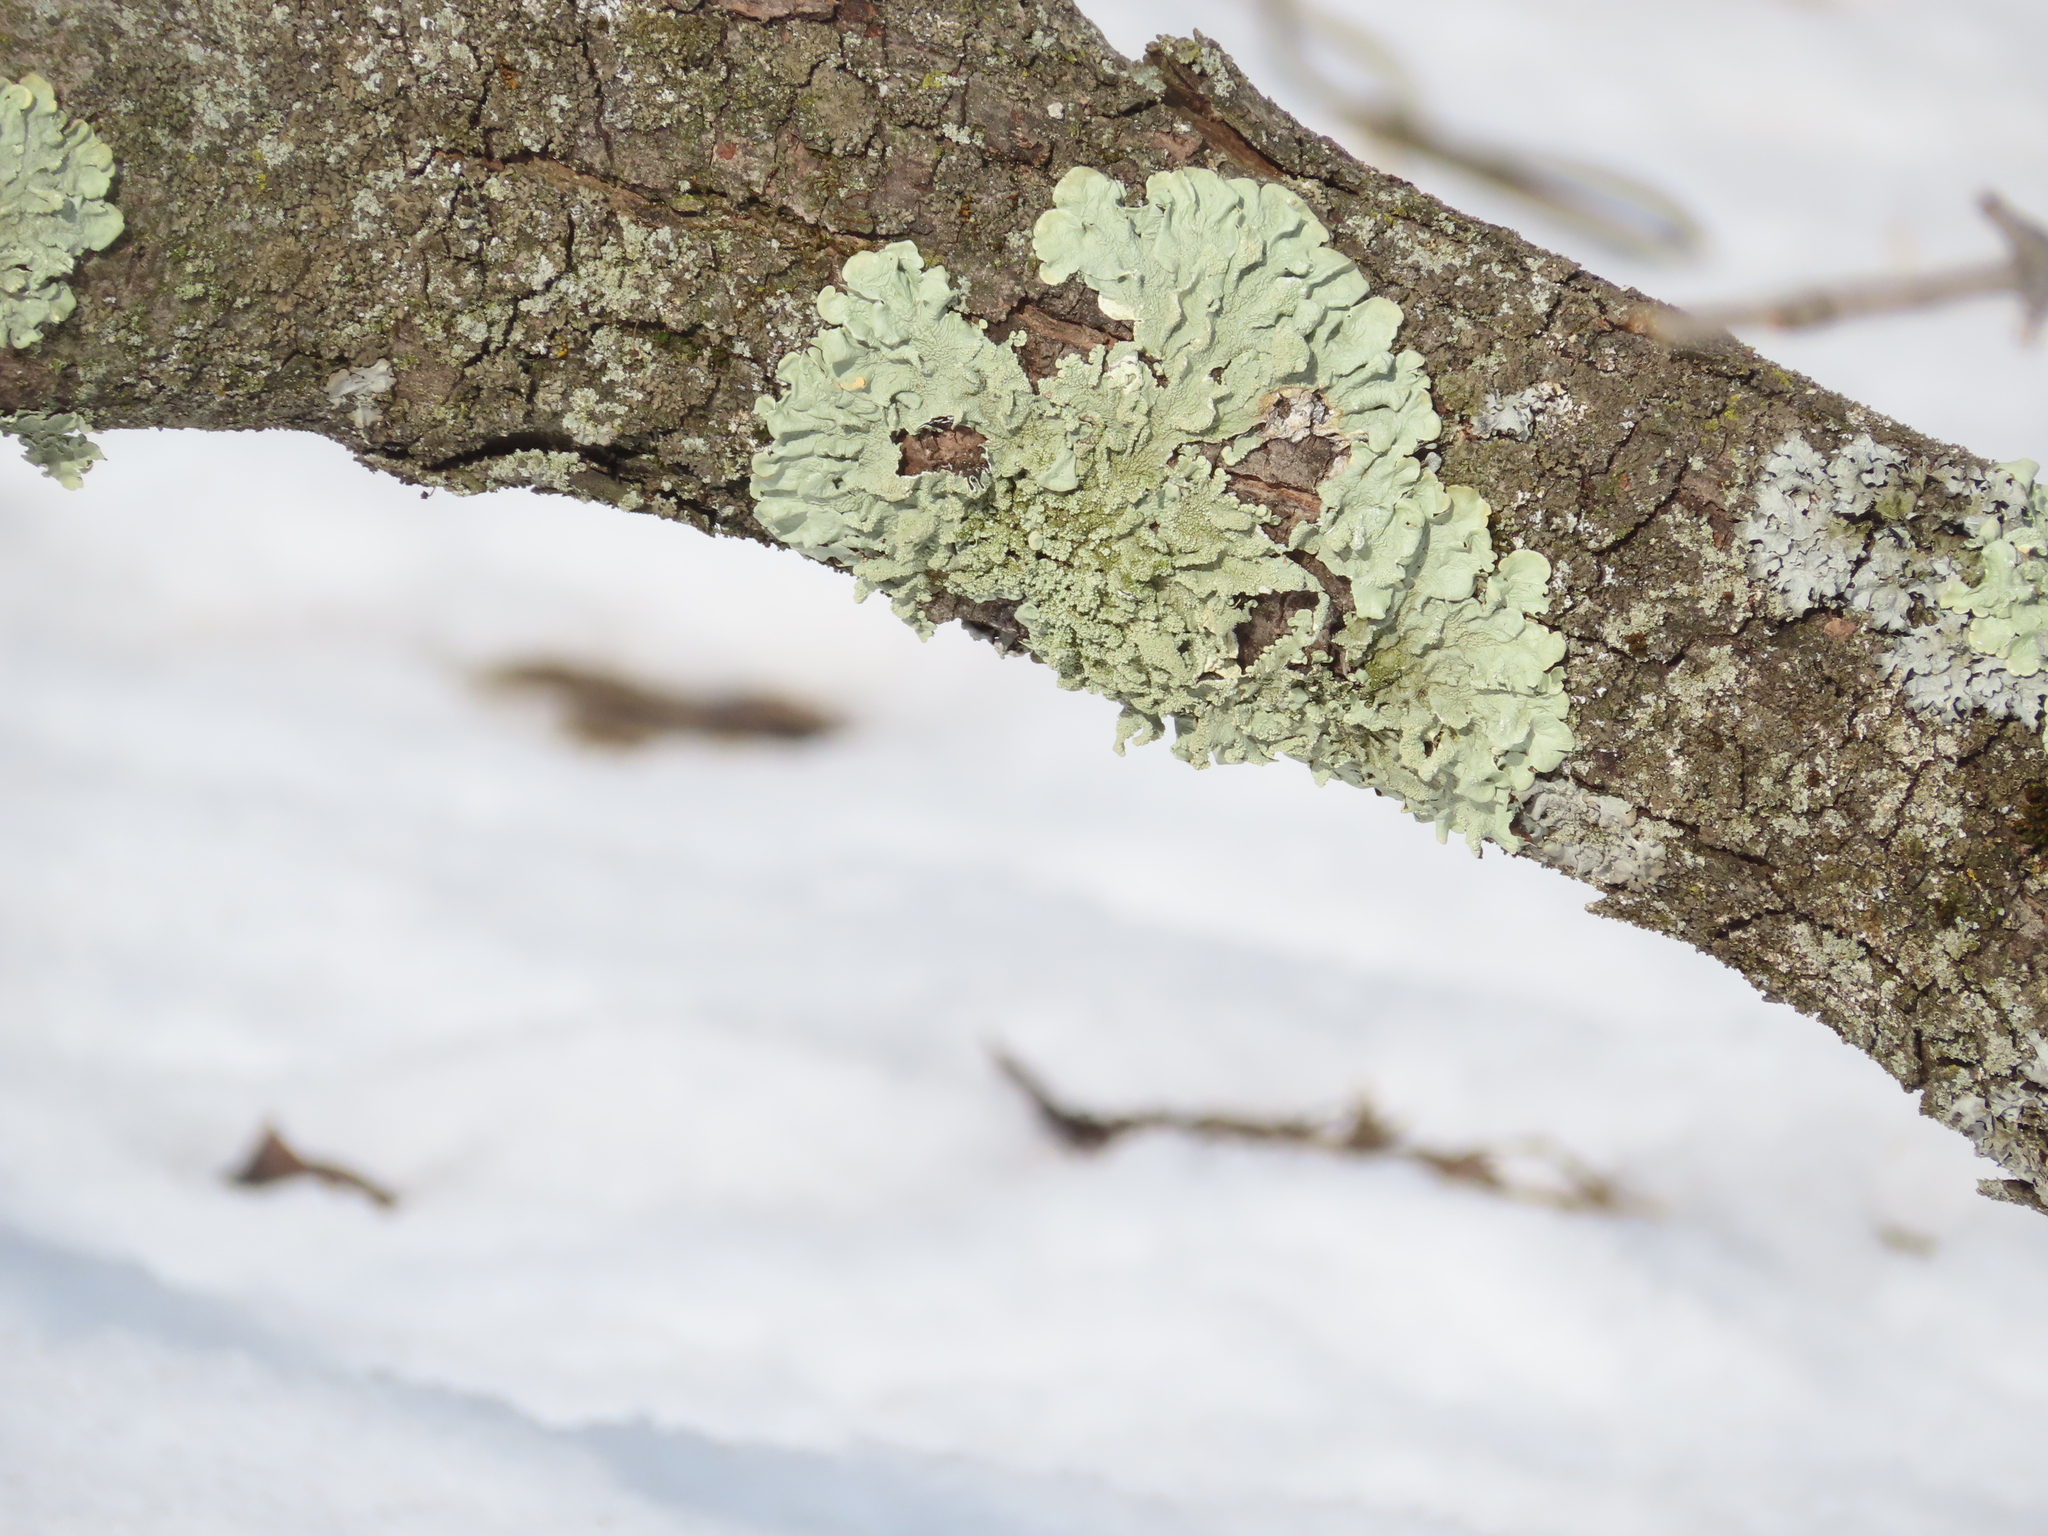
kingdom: Fungi
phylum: Ascomycota
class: Lecanoromycetes
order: Lecanorales
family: Parmeliaceae
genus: Flavoparmelia
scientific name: Flavoparmelia caperata
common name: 40-mile per hour lichen
